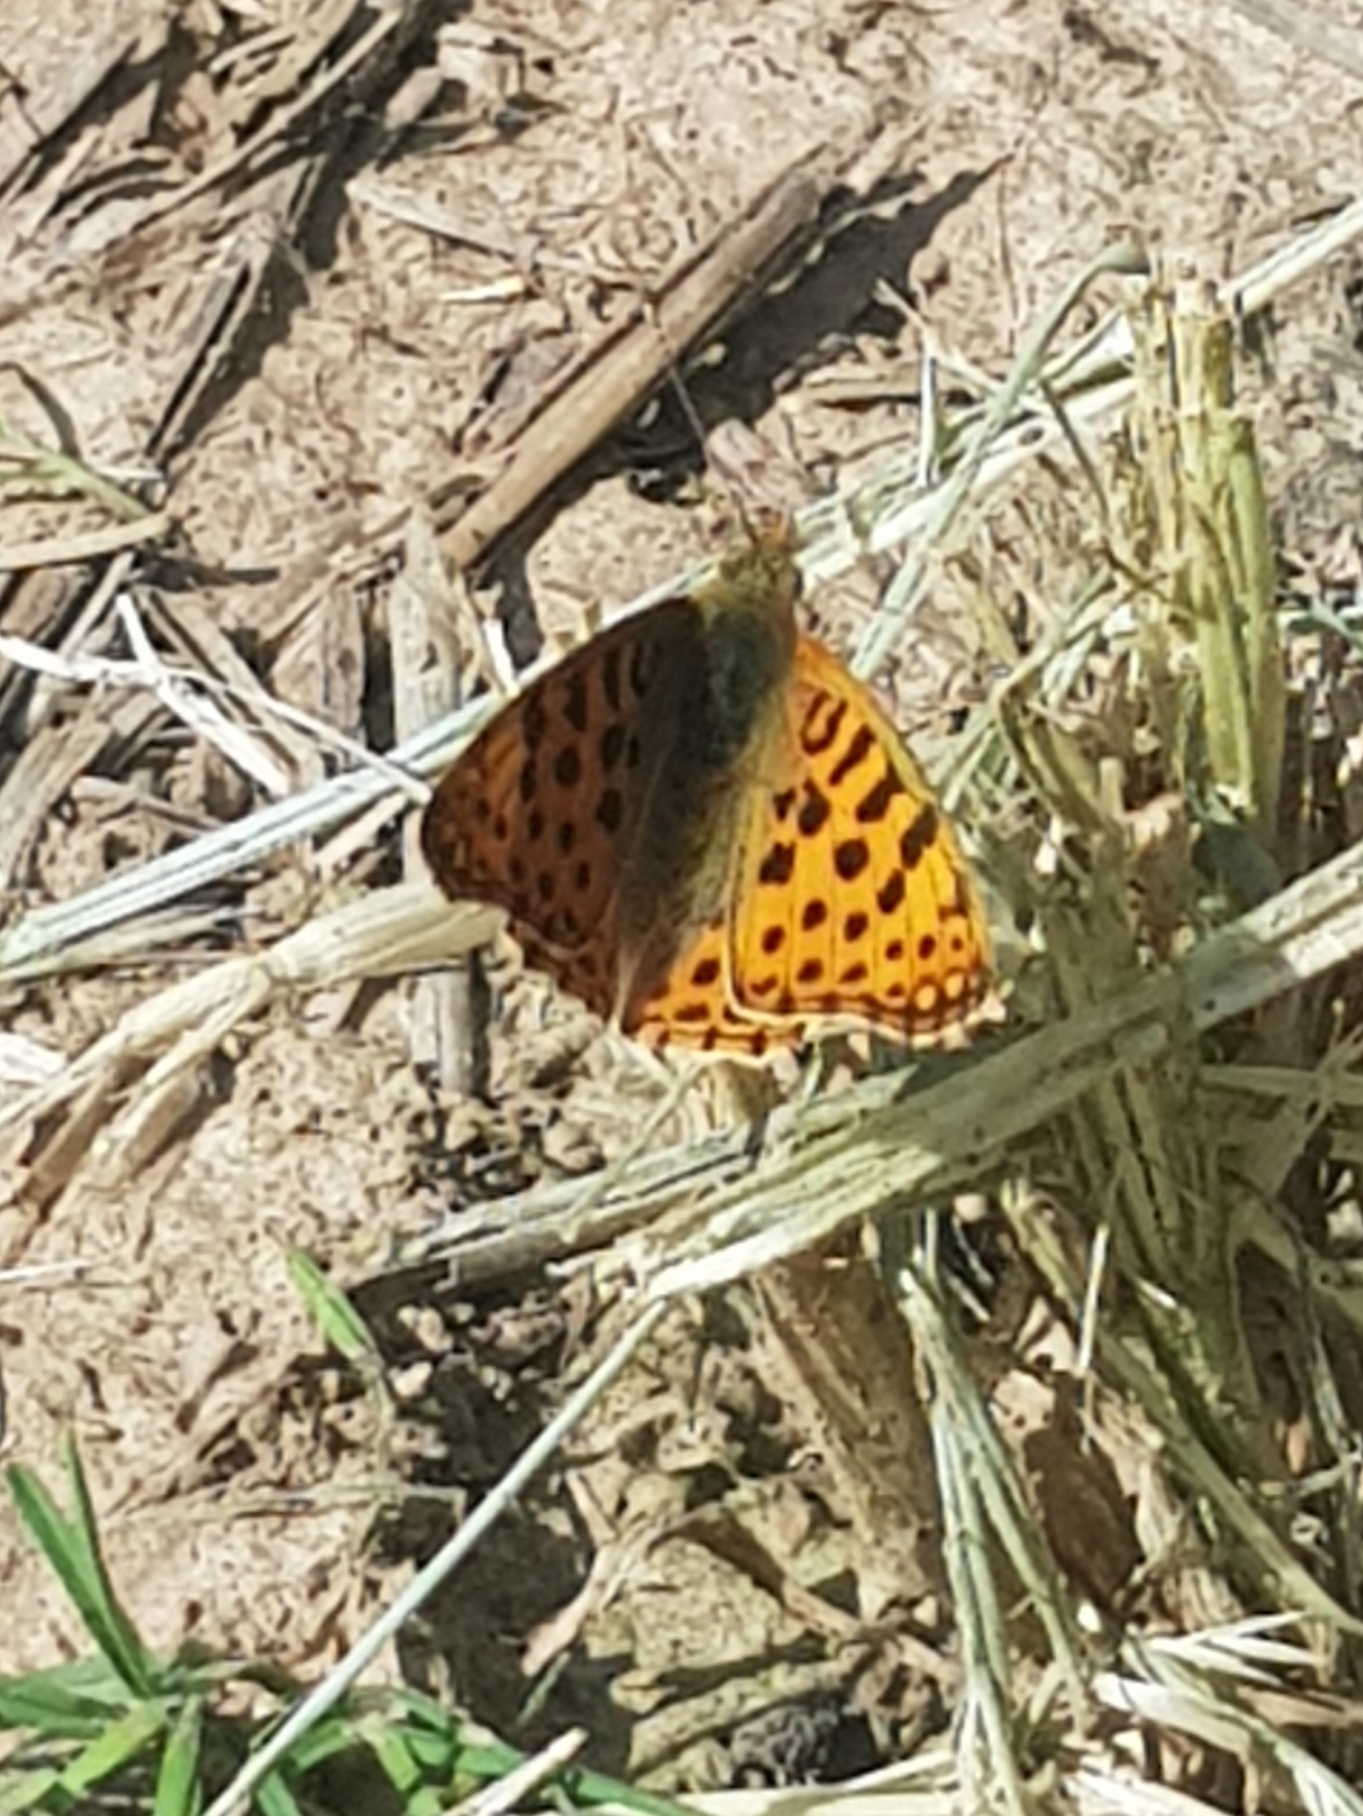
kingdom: Animalia
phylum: Arthropoda
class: Insecta
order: Lepidoptera
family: Nymphalidae
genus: Issoria
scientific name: Issoria lathonia
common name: Queen of spain fritillary
